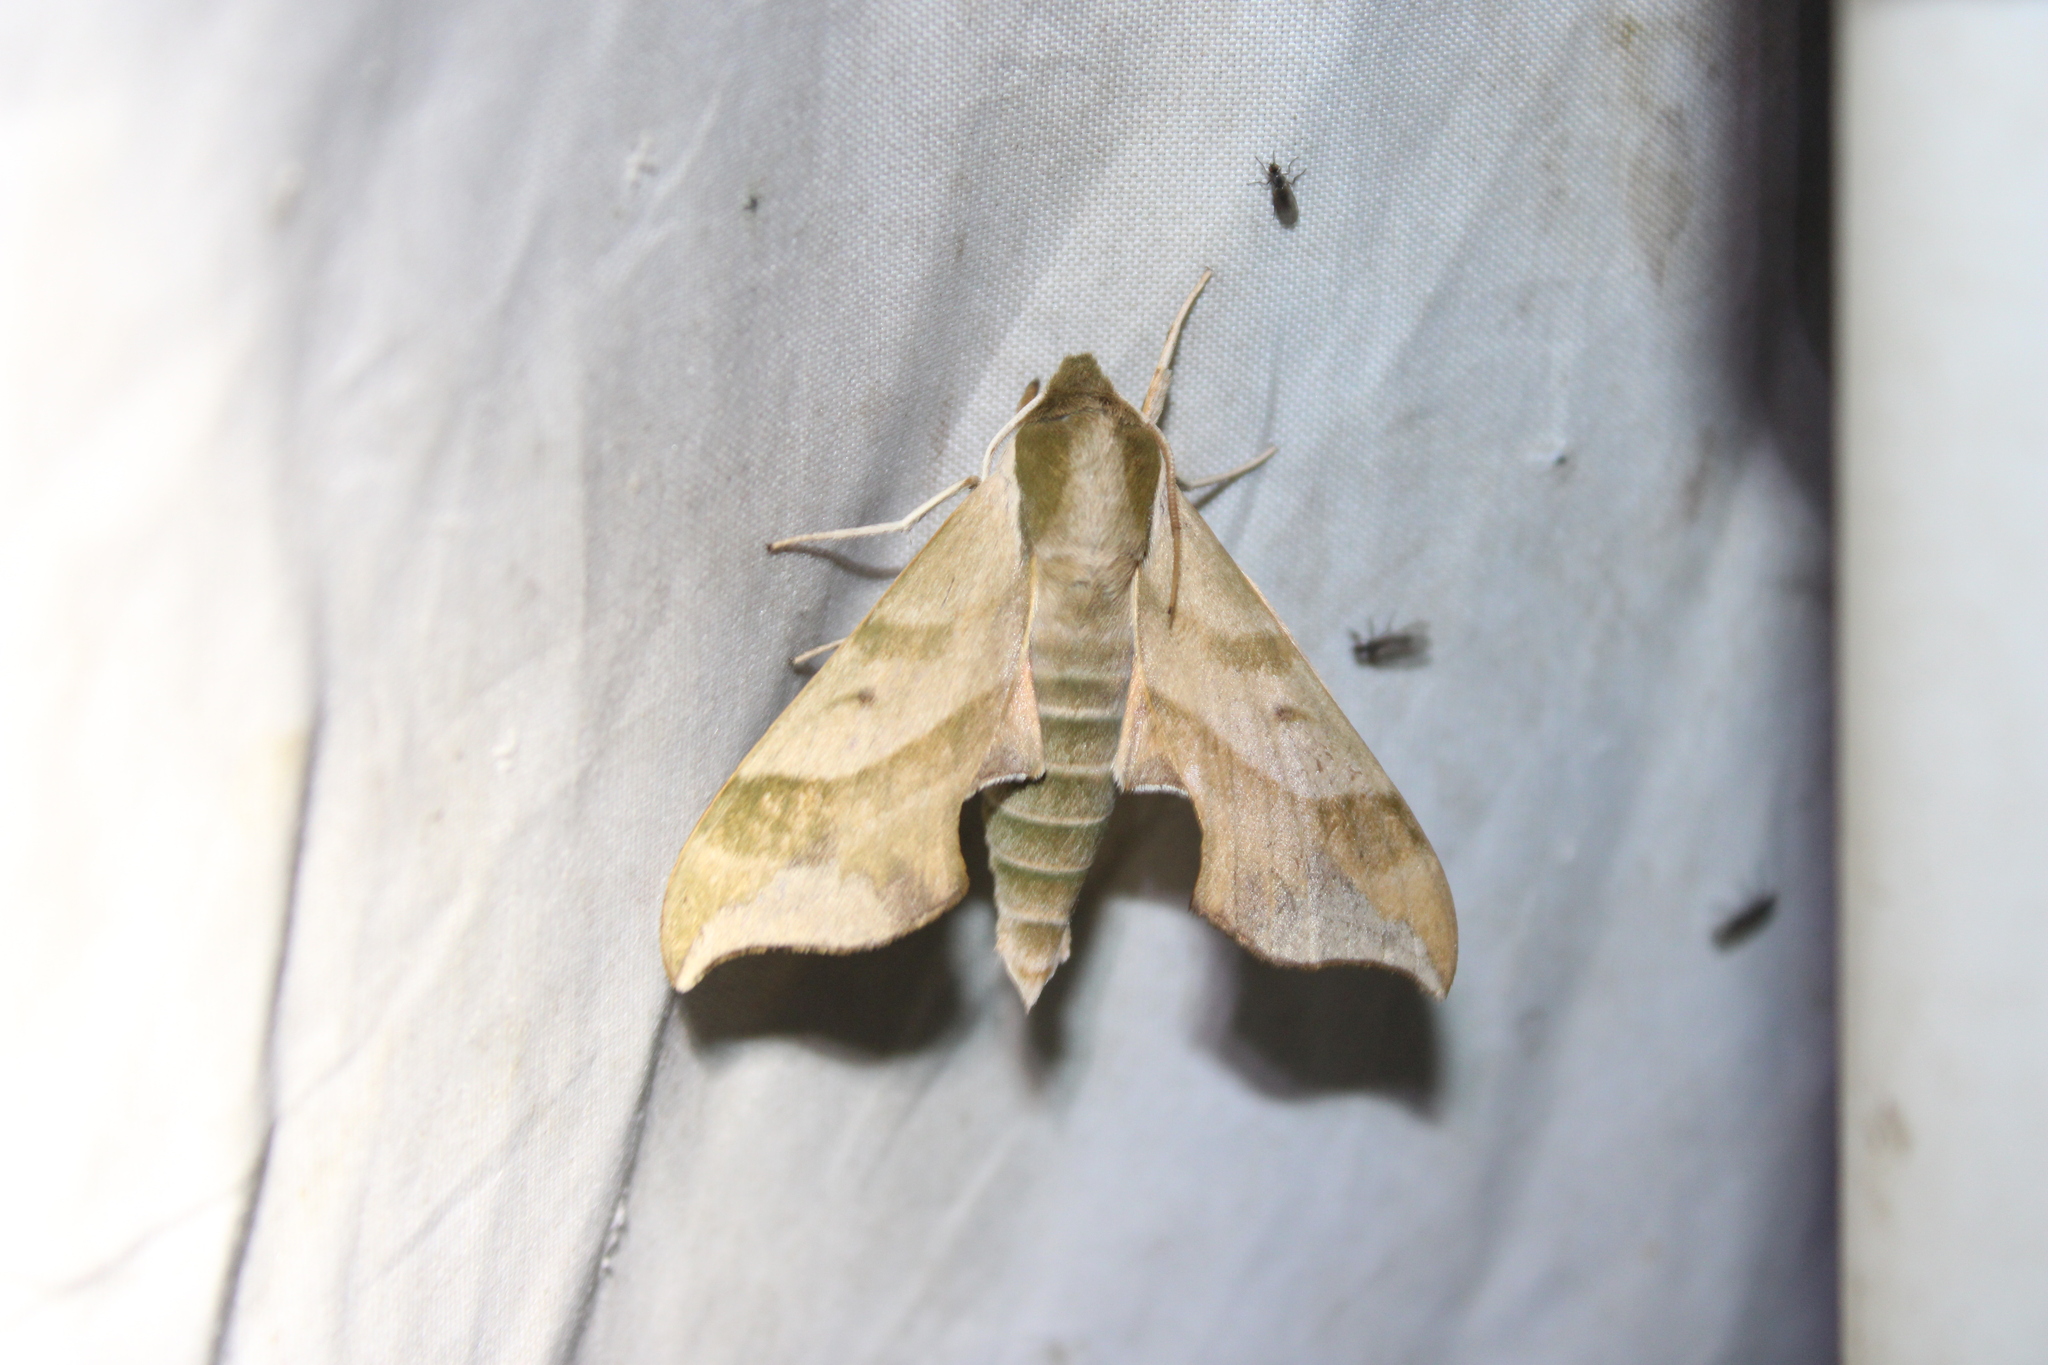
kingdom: Animalia
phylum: Arthropoda
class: Insecta
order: Lepidoptera
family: Sphingidae
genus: Darapsa
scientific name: Darapsa myron
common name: Hog sphinx
